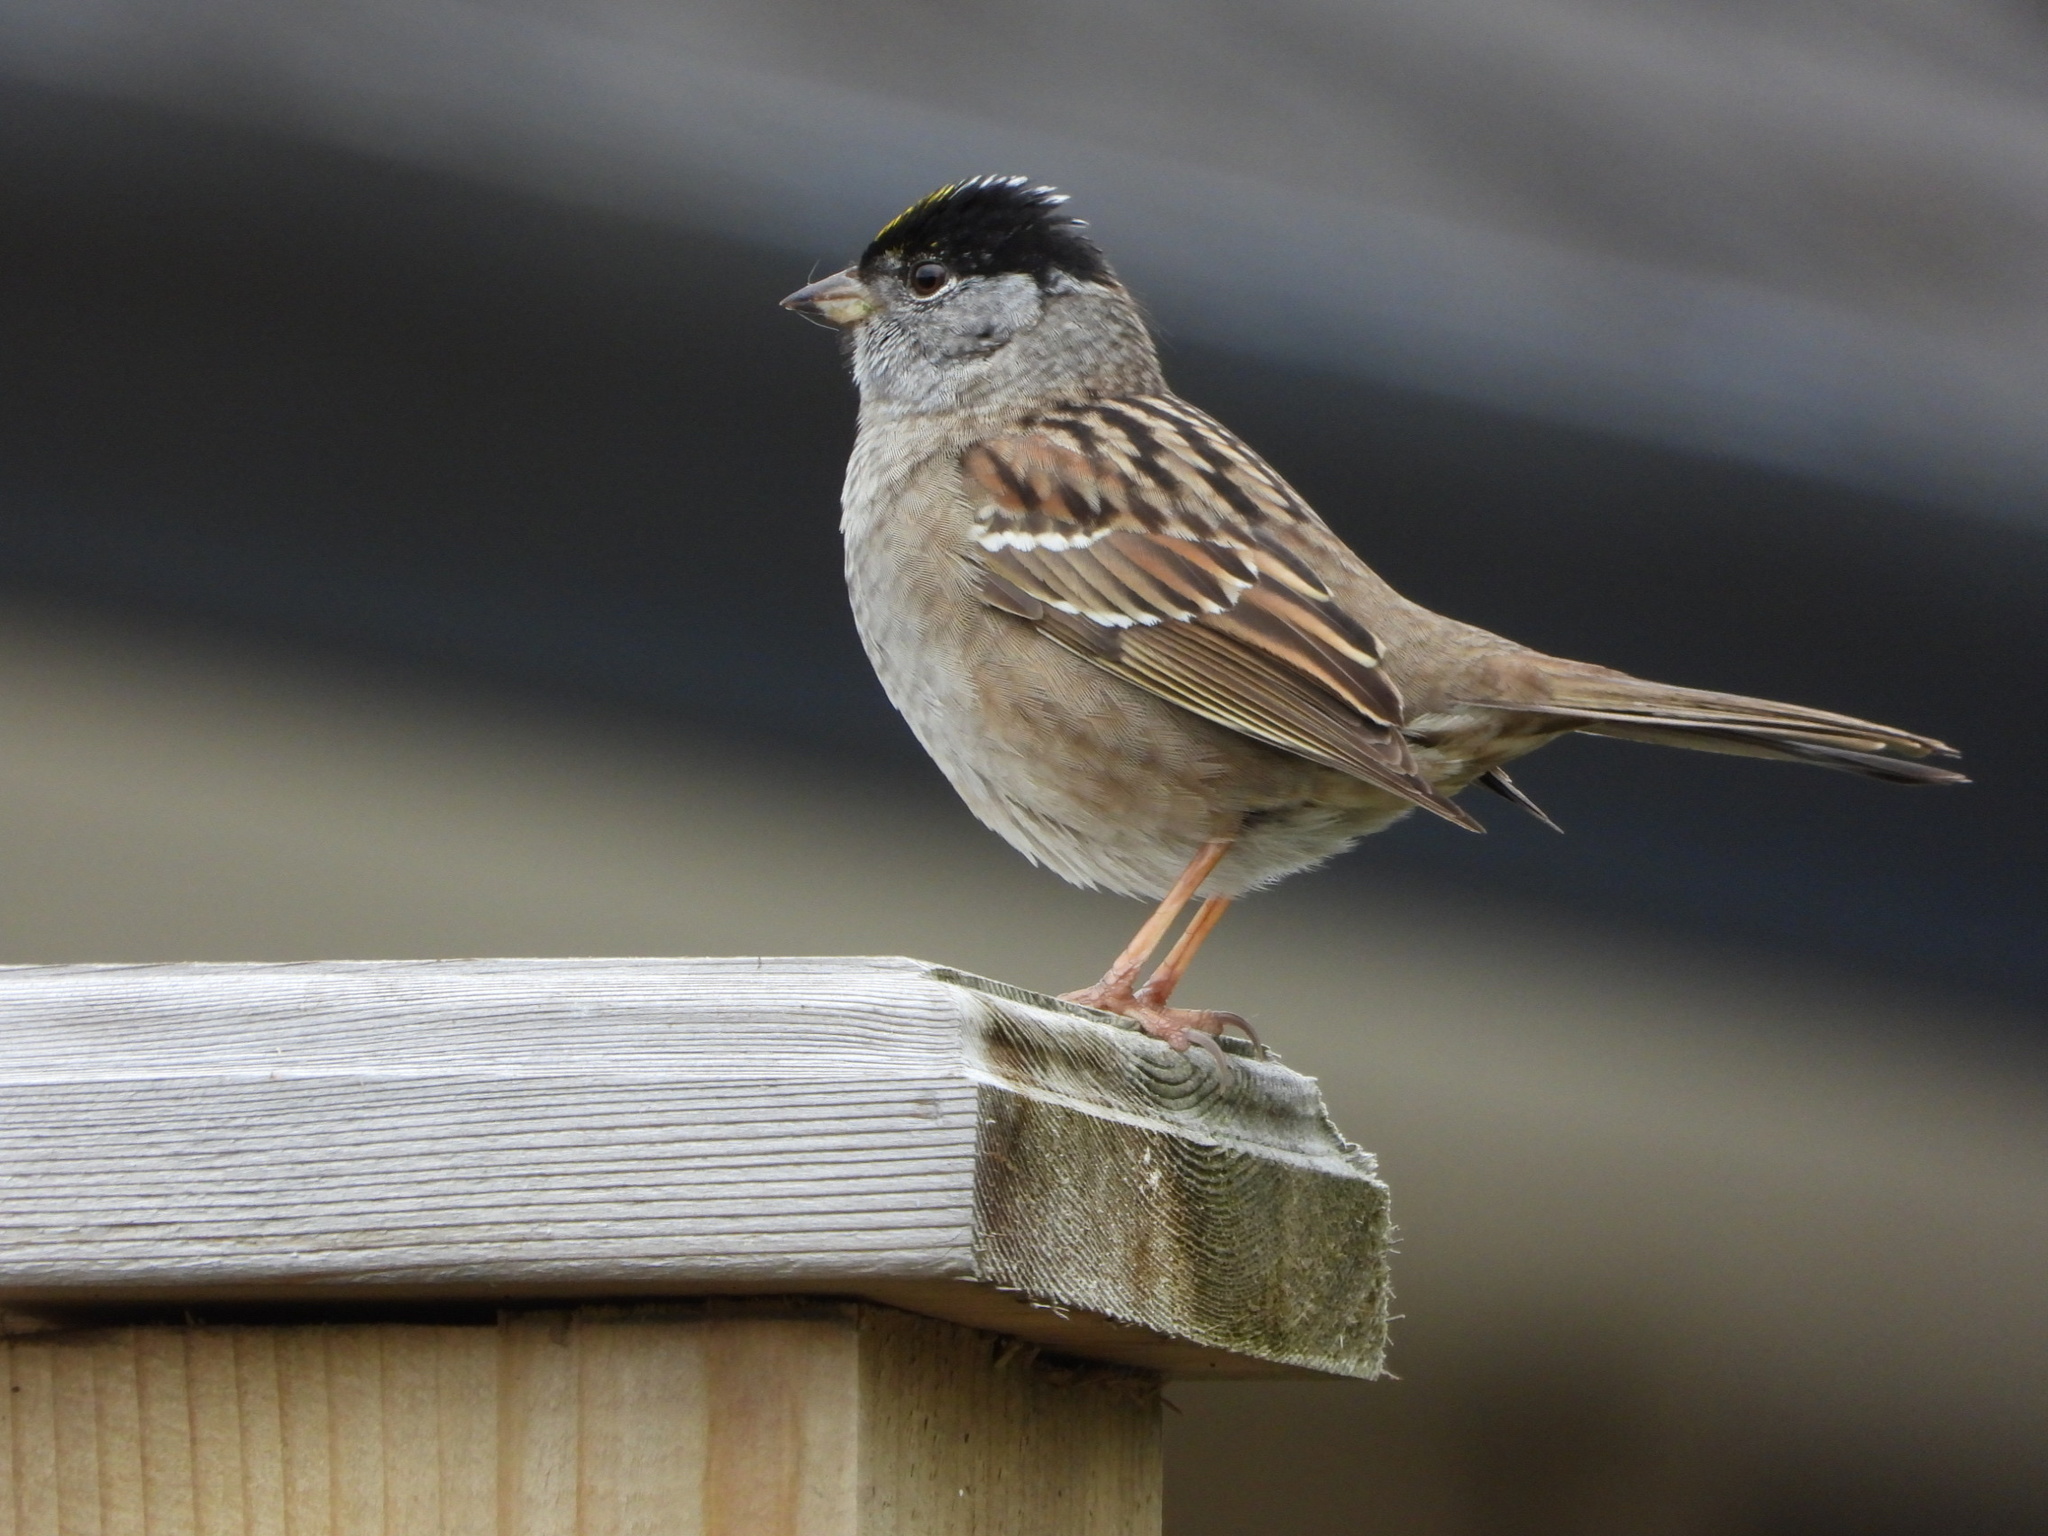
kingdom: Animalia
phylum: Chordata
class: Aves
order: Passeriformes
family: Passerellidae
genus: Zonotrichia
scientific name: Zonotrichia atricapilla
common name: Golden-crowned sparrow
